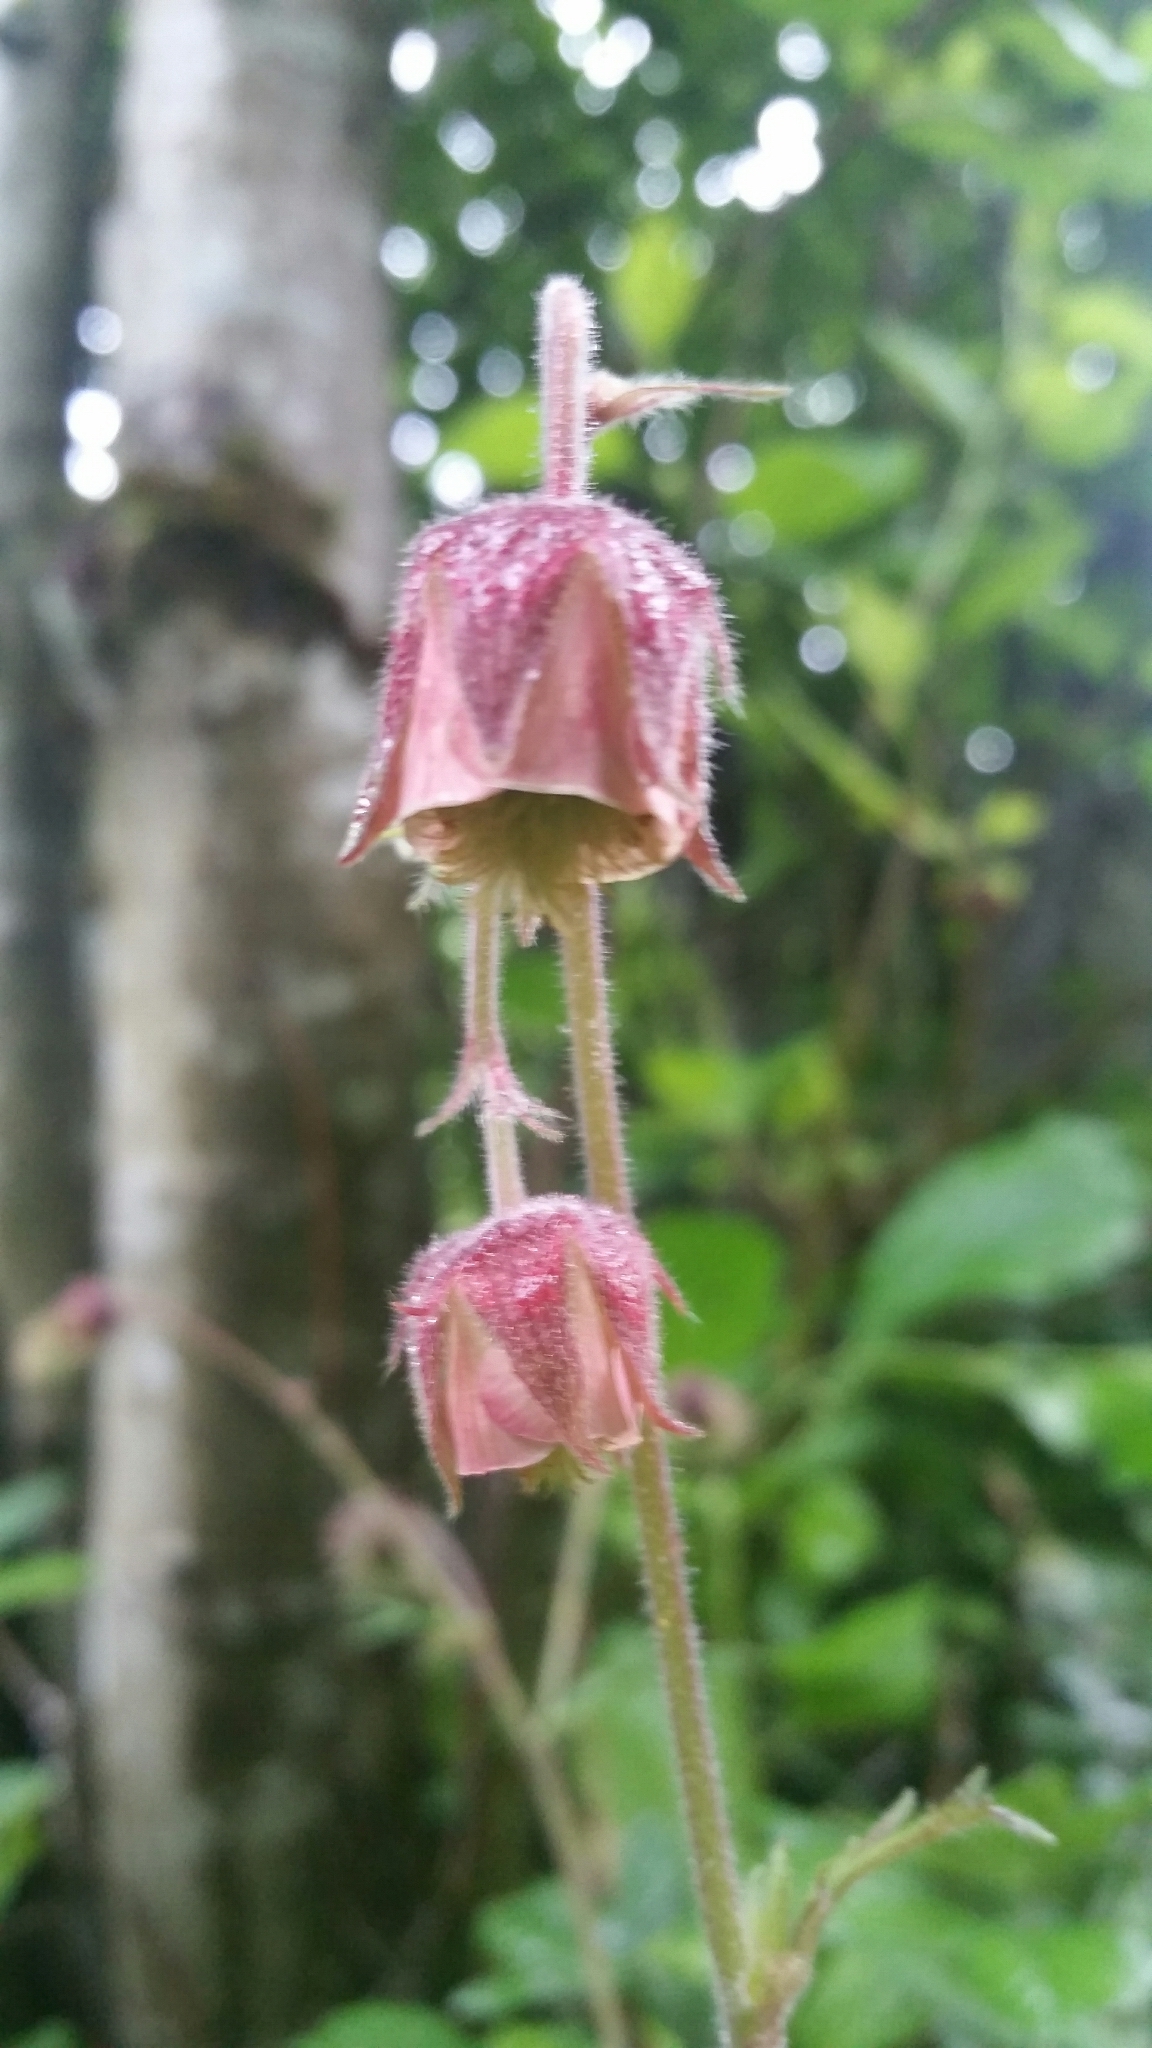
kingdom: Plantae
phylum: Tracheophyta
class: Magnoliopsida
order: Rosales
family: Rosaceae
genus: Geum
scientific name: Geum rivale
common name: Water avens
